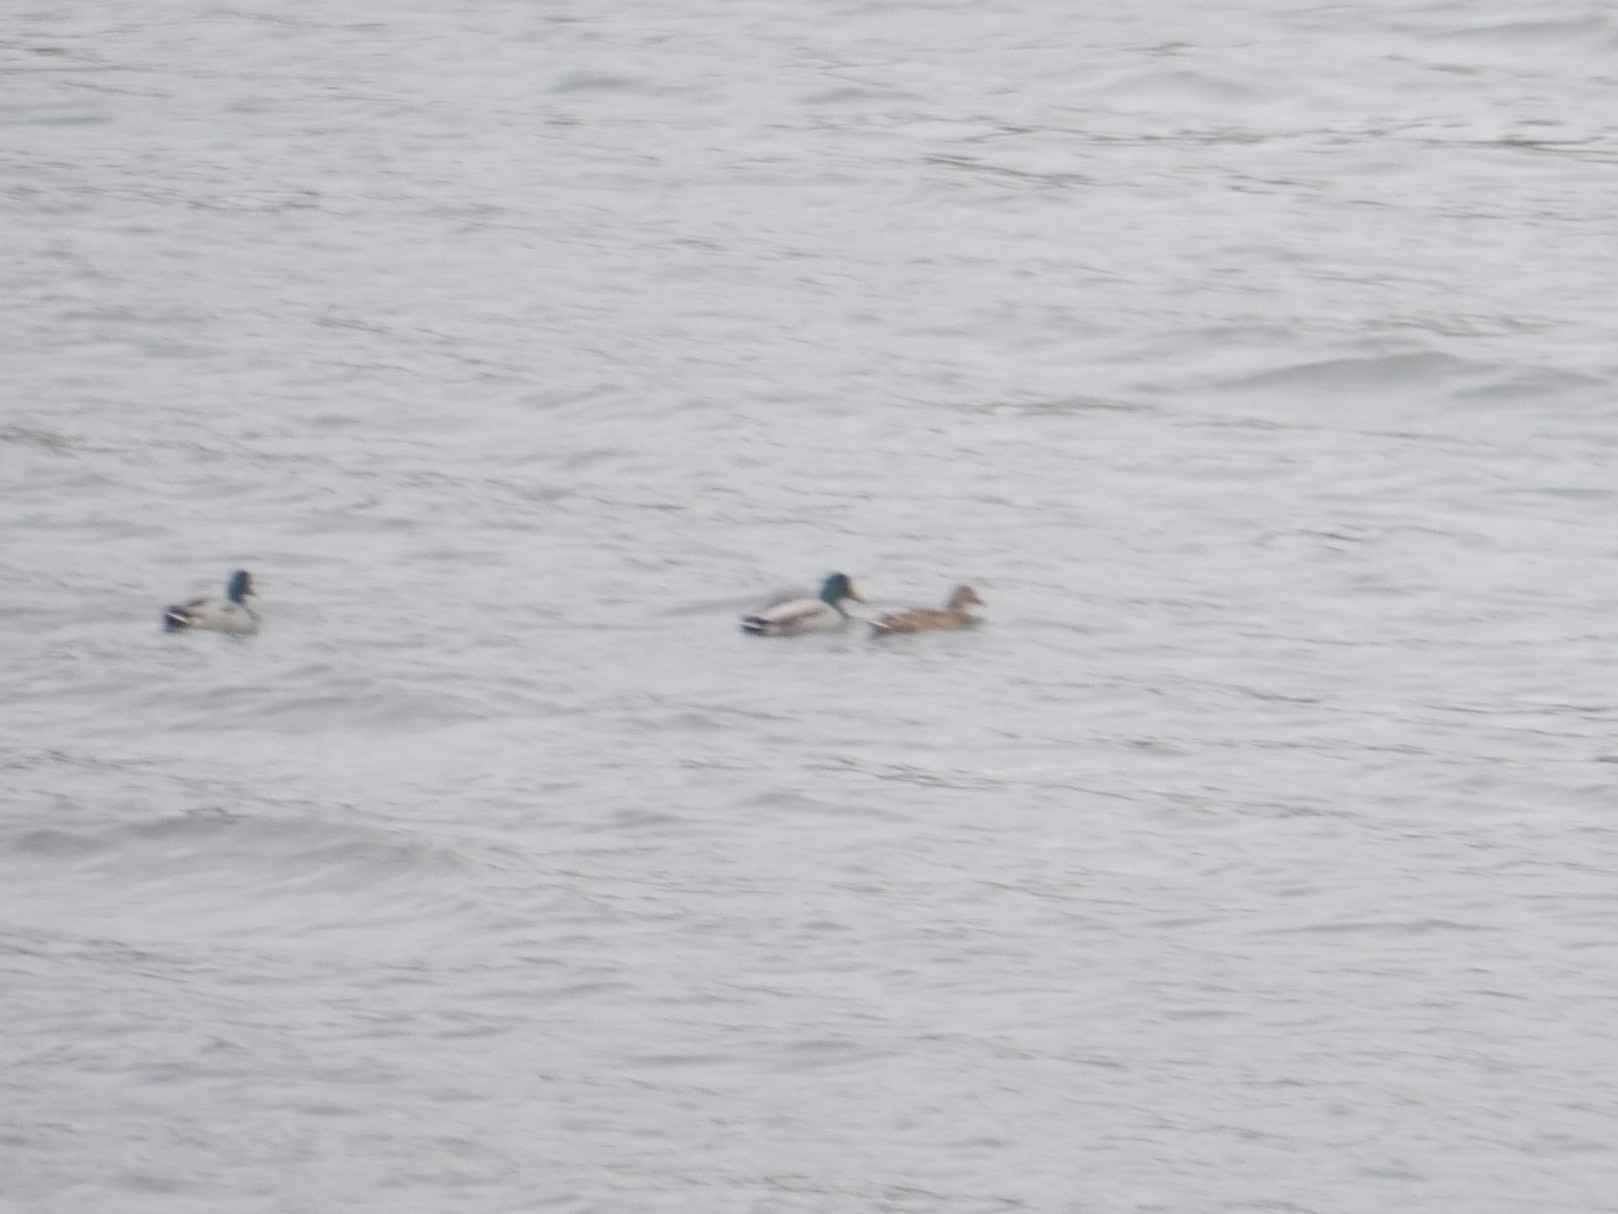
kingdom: Animalia
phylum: Chordata
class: Aves
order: Anseriformes
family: Anatidae
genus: Anas
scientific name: Anas platyrhynchos
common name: Mallard
